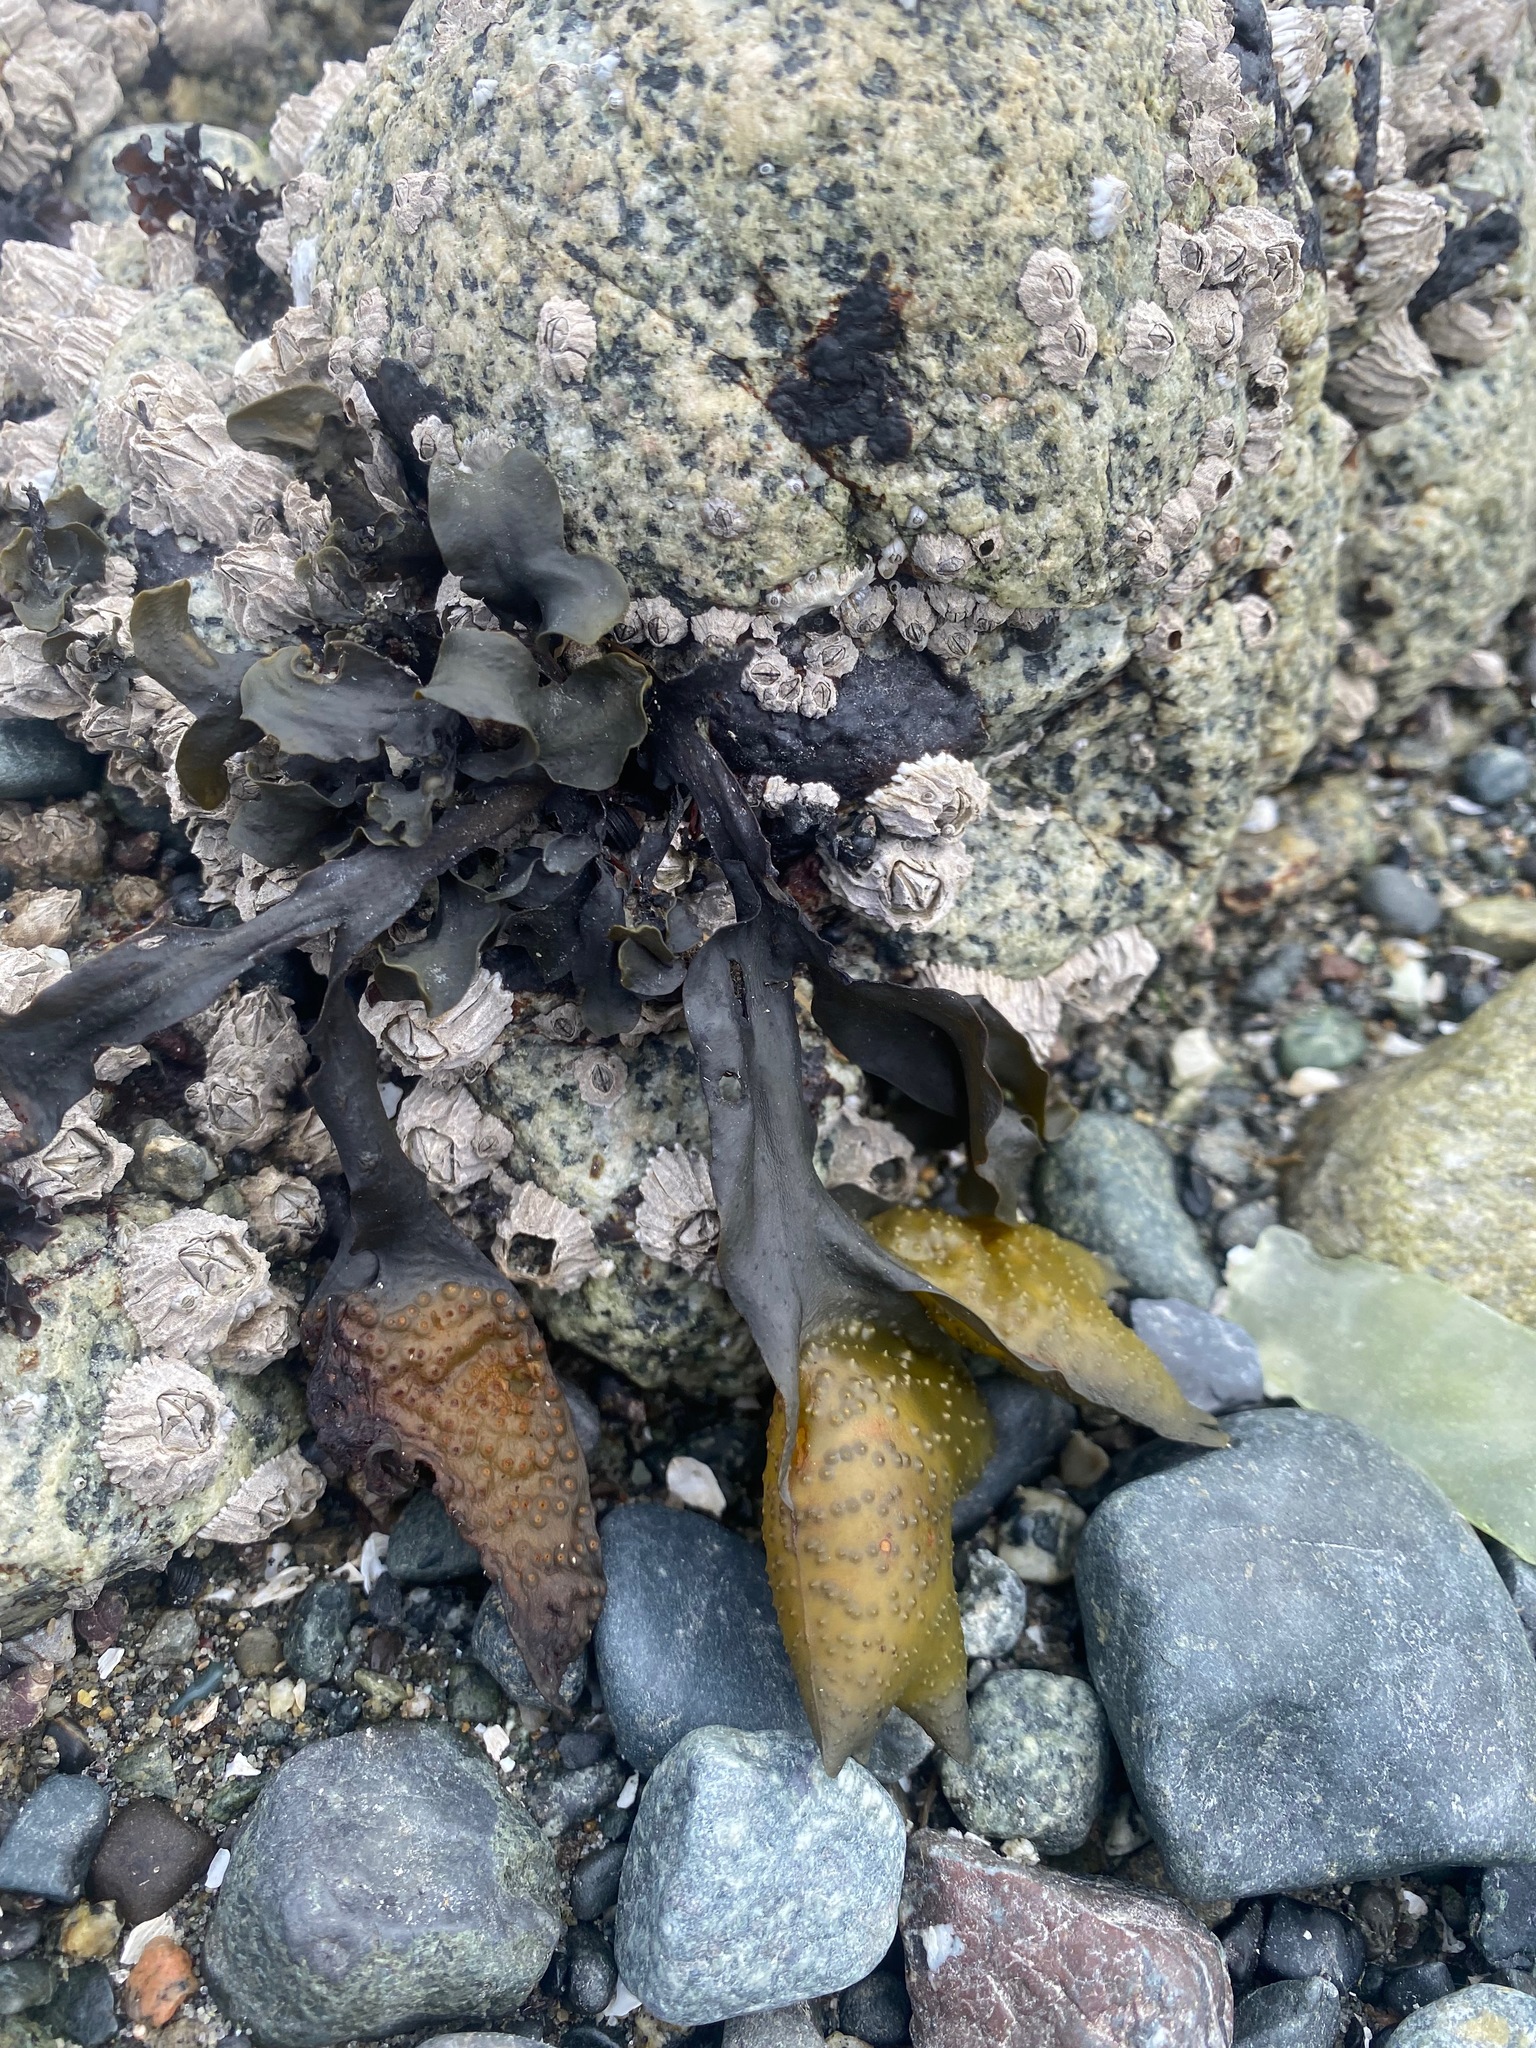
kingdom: Chromista
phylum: Ochrophyta
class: Phaeophyceae
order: Fucales
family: Fucaceae
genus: Fucus
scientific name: Fucus distichus
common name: Rockweed
